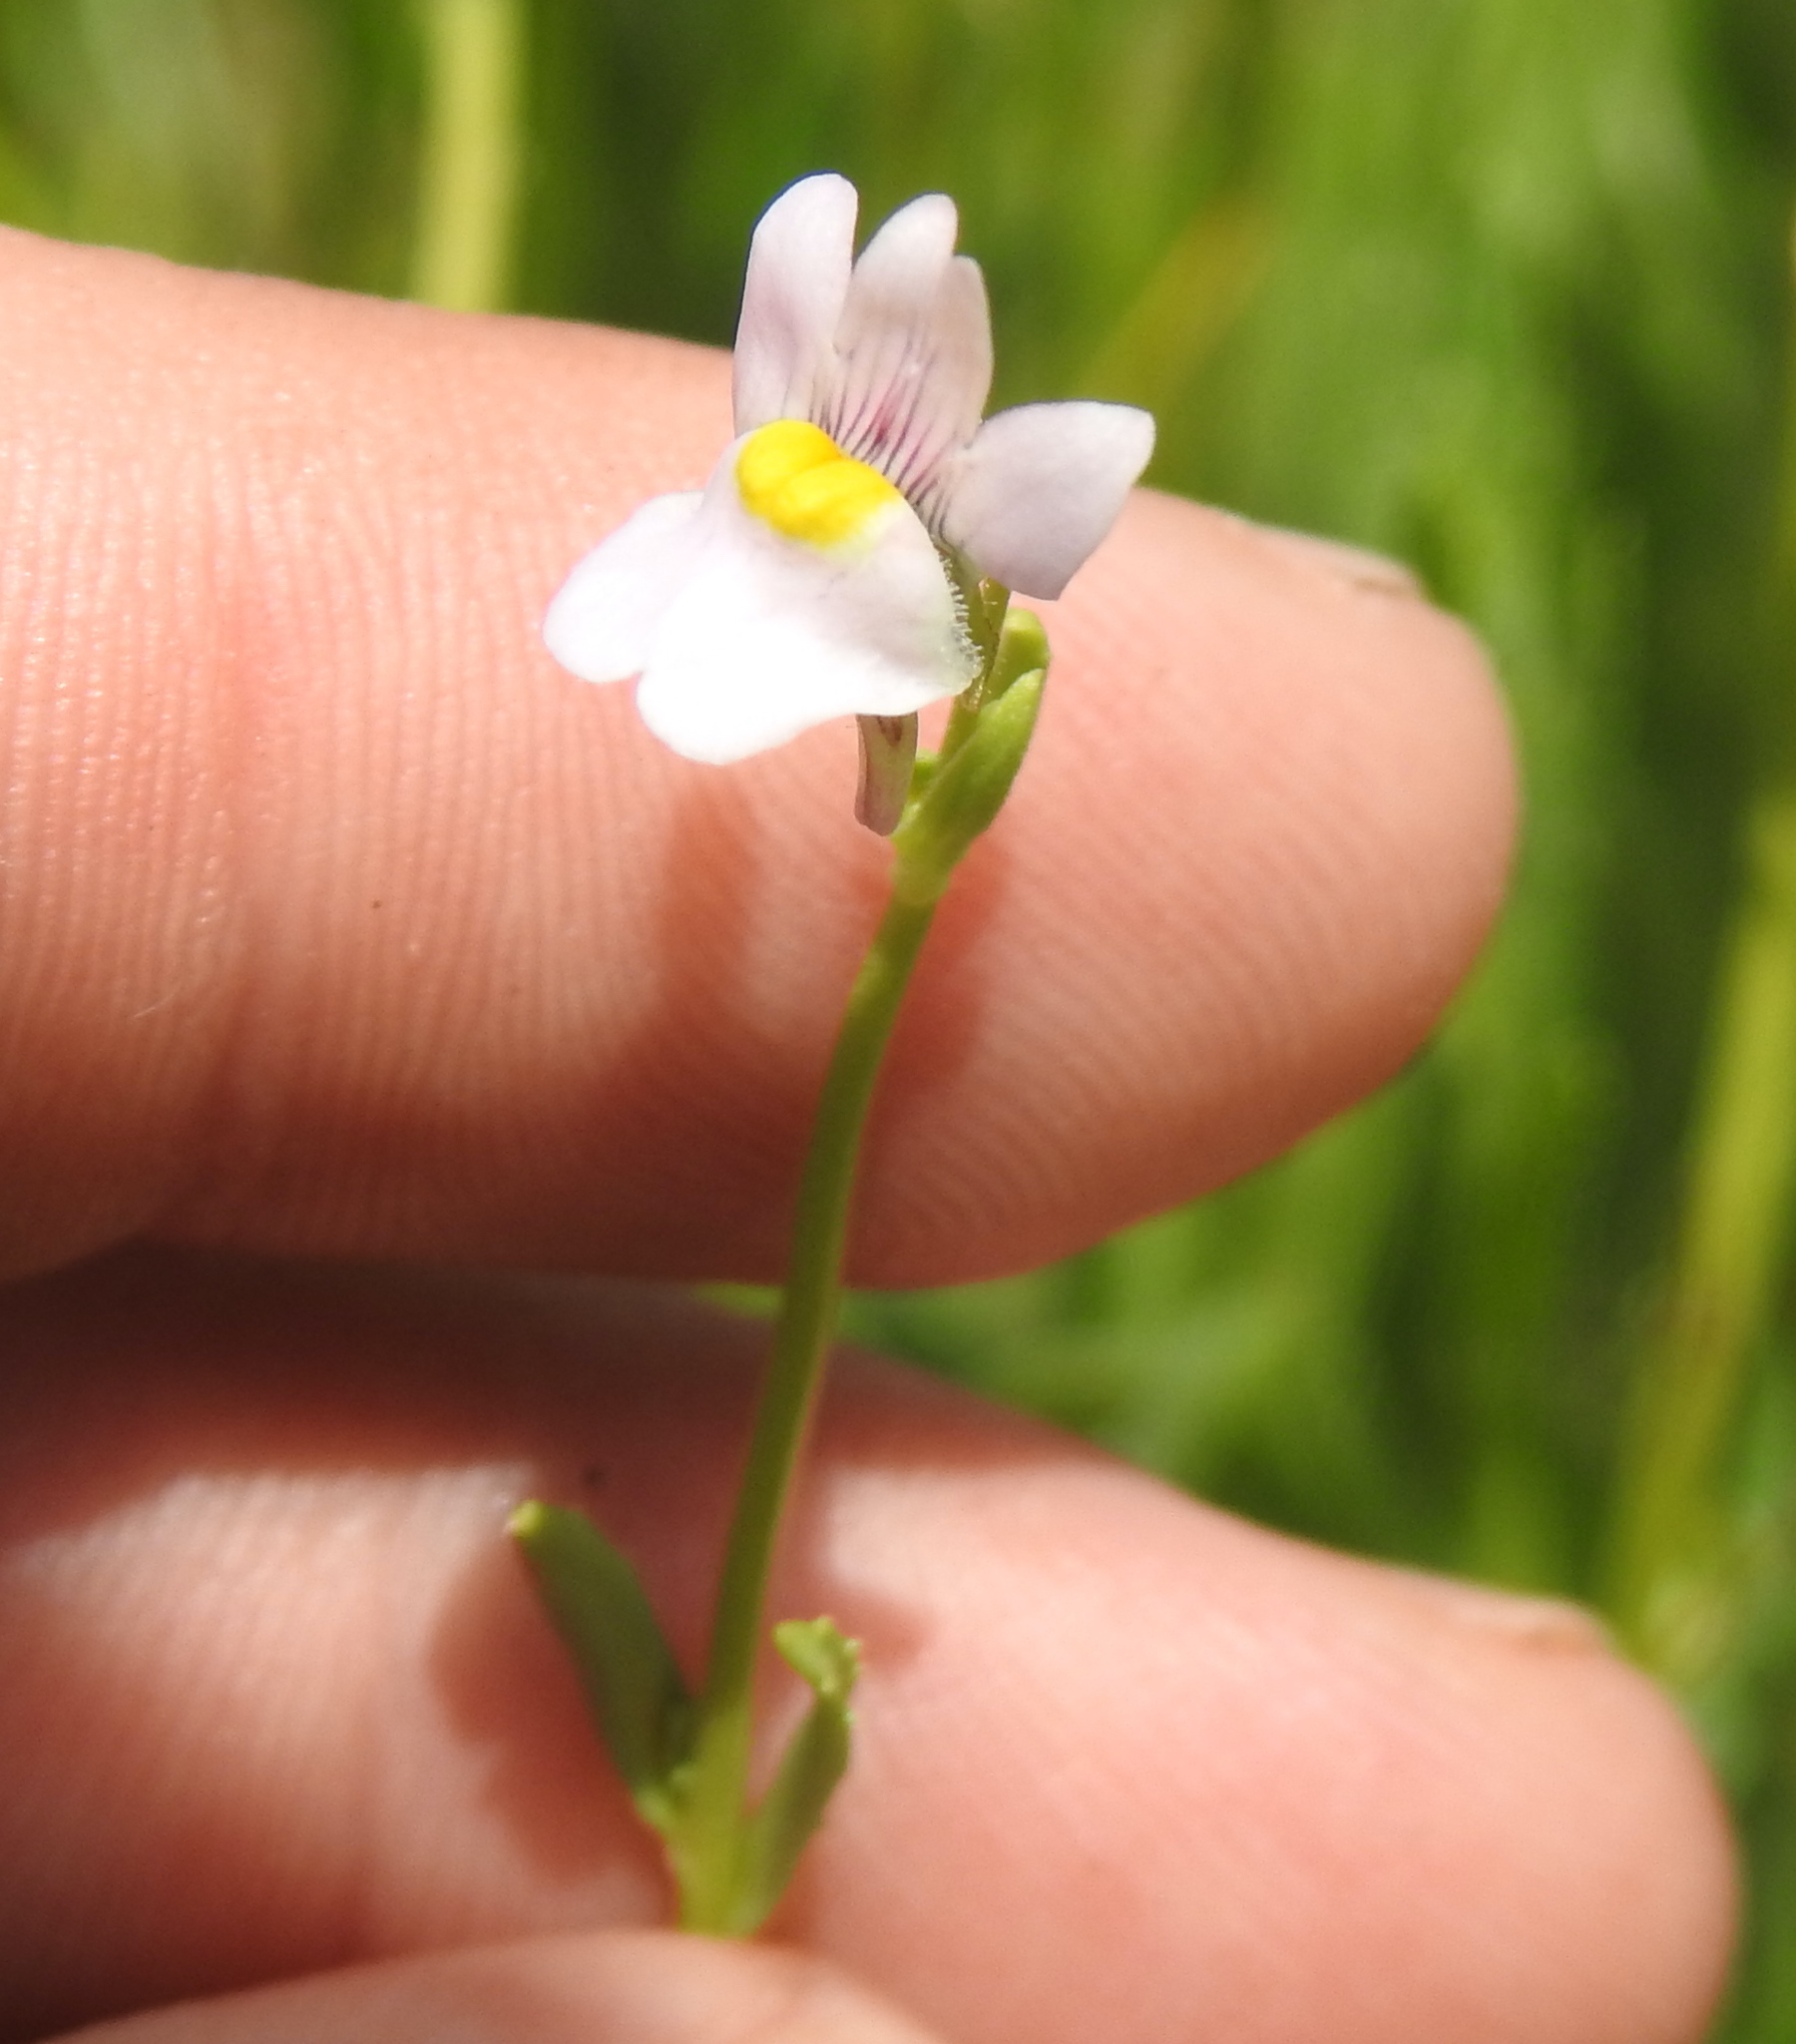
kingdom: Plantae
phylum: Tracheophyta
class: Magnoliopsida
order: Lamiales
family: Scrophulariaceae
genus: Nemesia
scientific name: Nemesia fruticans
